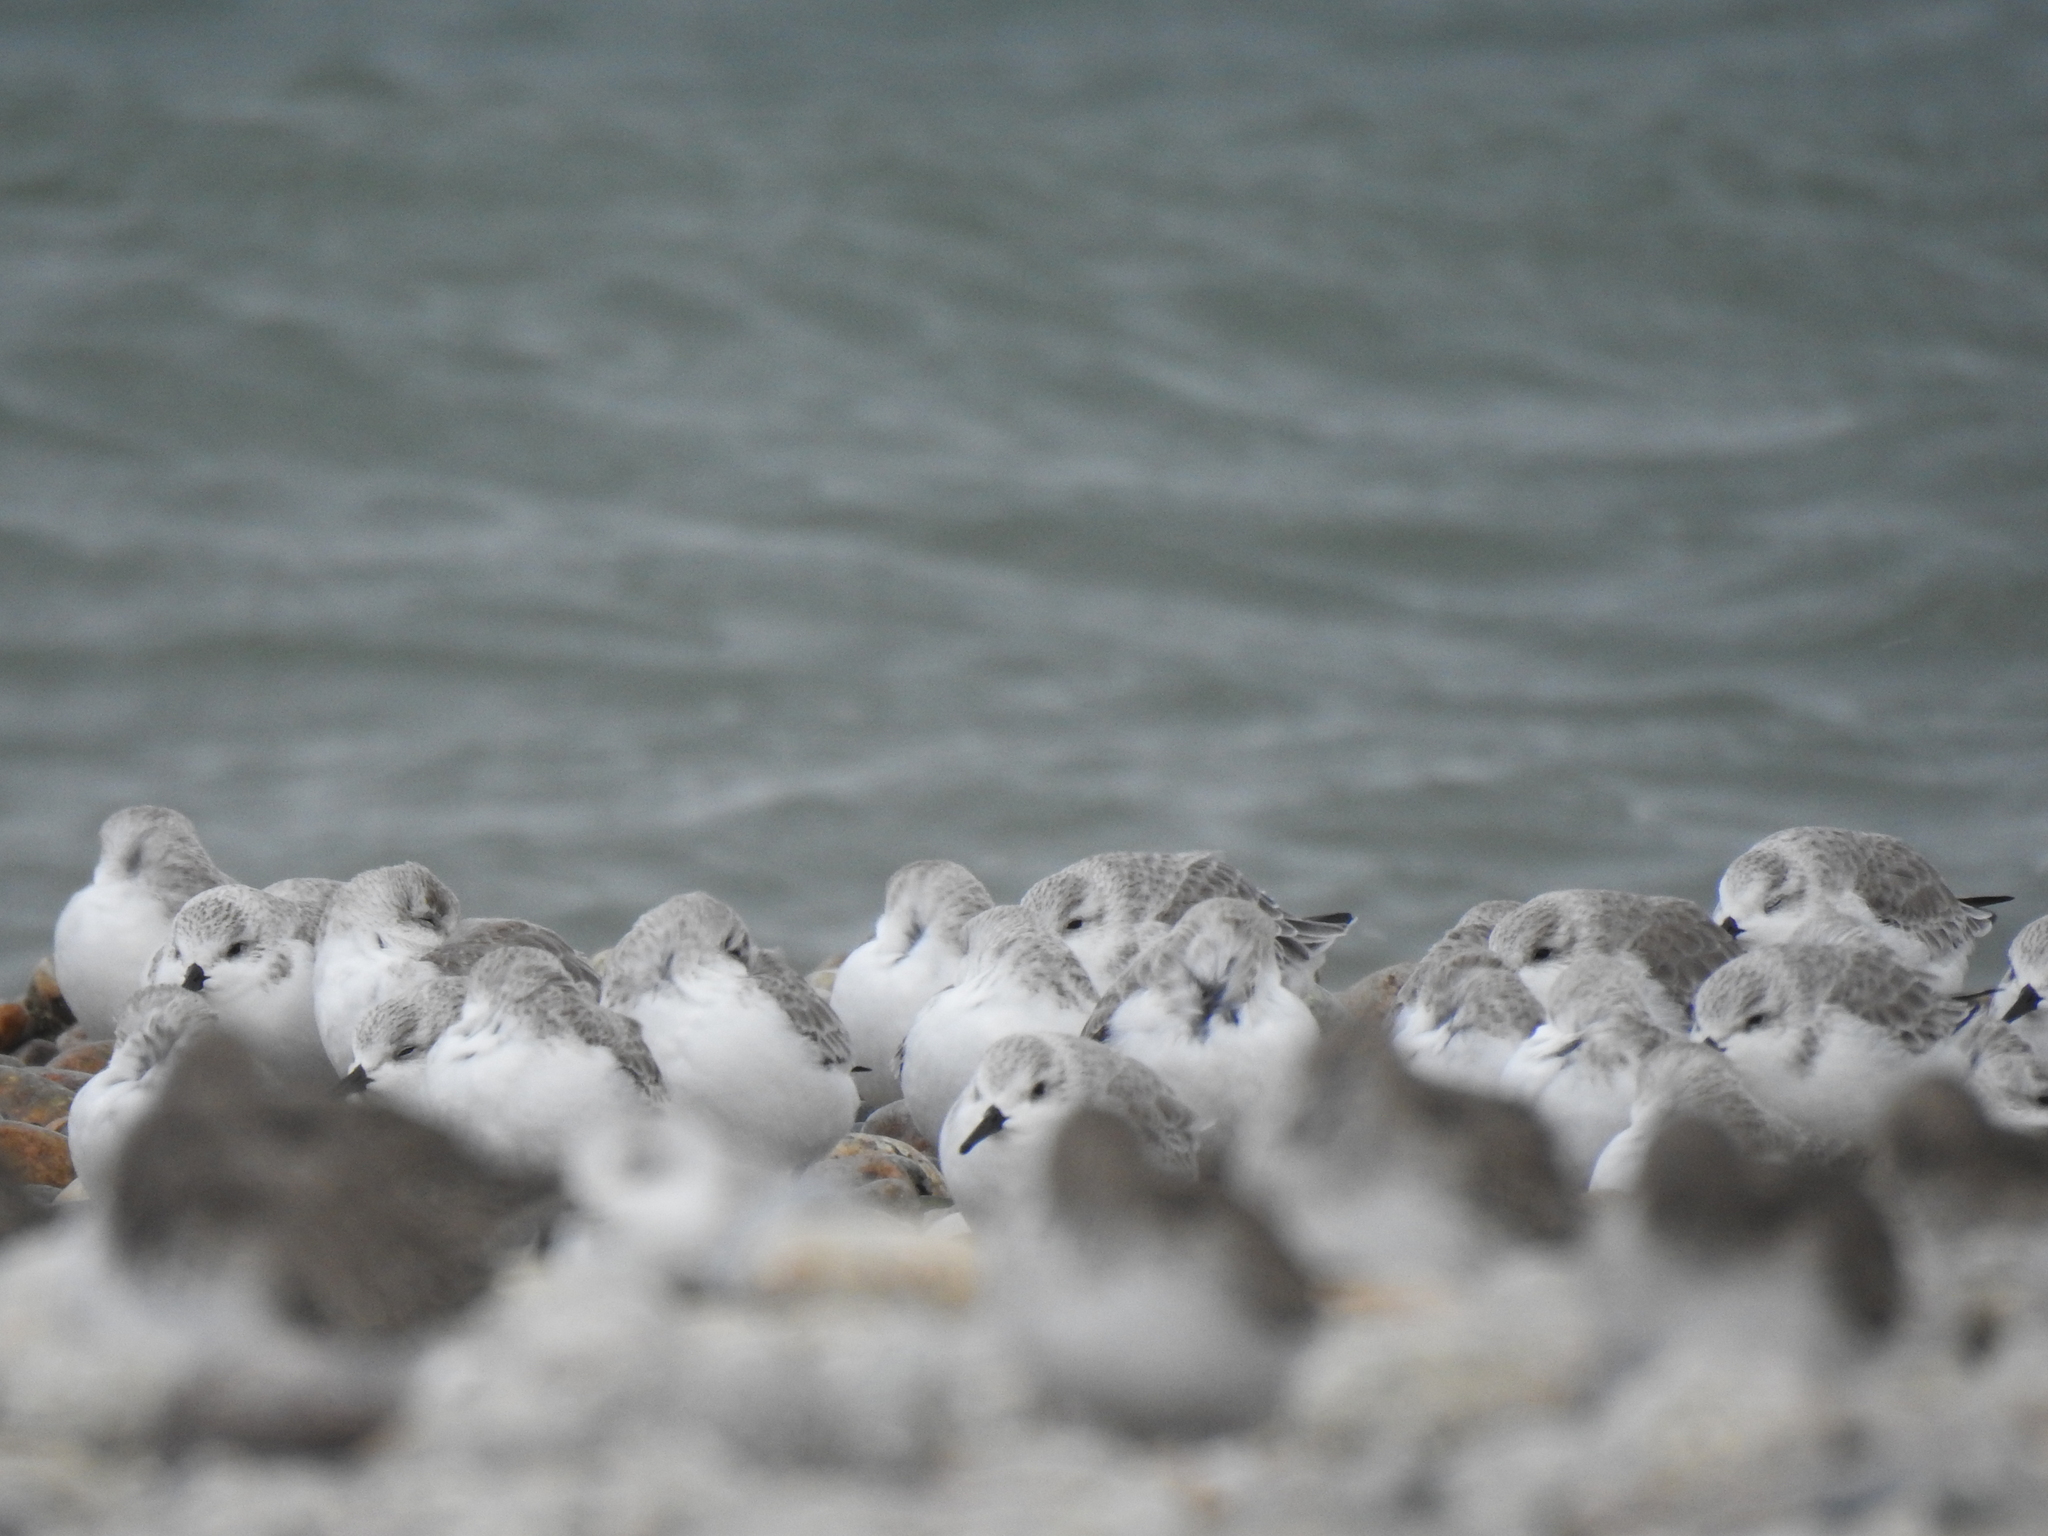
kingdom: Animalia
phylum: Chordata
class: Aves
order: Charadriiformes
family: Scolopacidae
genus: Calidris
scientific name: Calidris alba
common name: Sanderling
